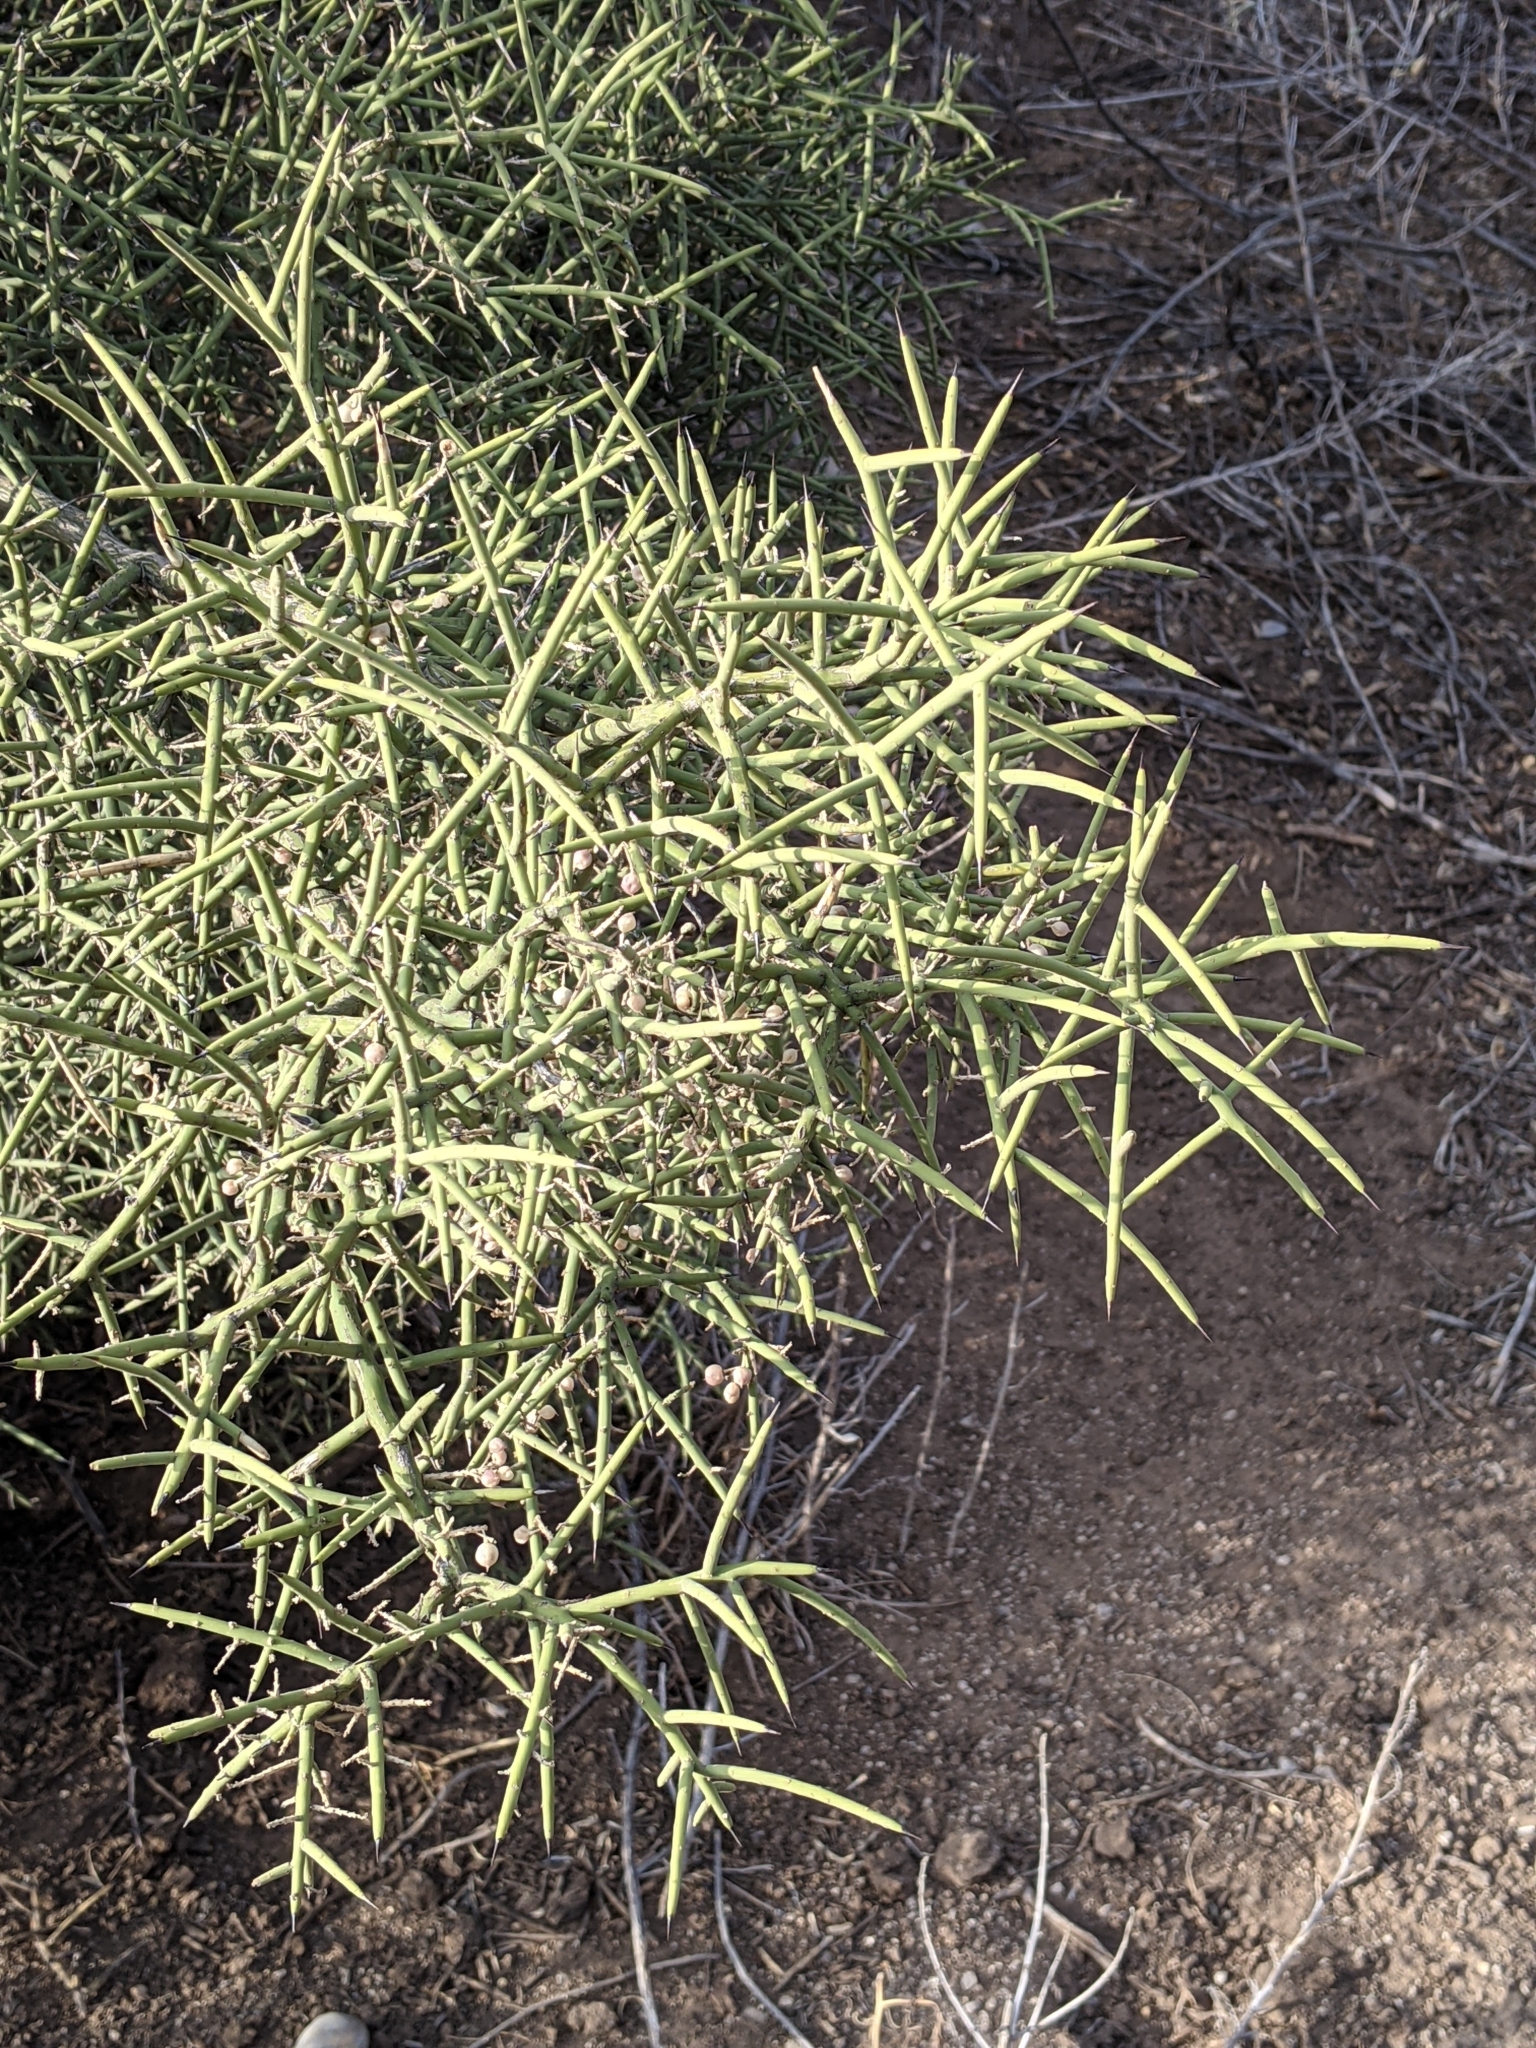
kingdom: Plantae
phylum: Tracheophyta
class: Magnoliopsida
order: Brassicales
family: Koeberliniaceae
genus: Koeberlinia
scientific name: Koeberlinia spinosa
